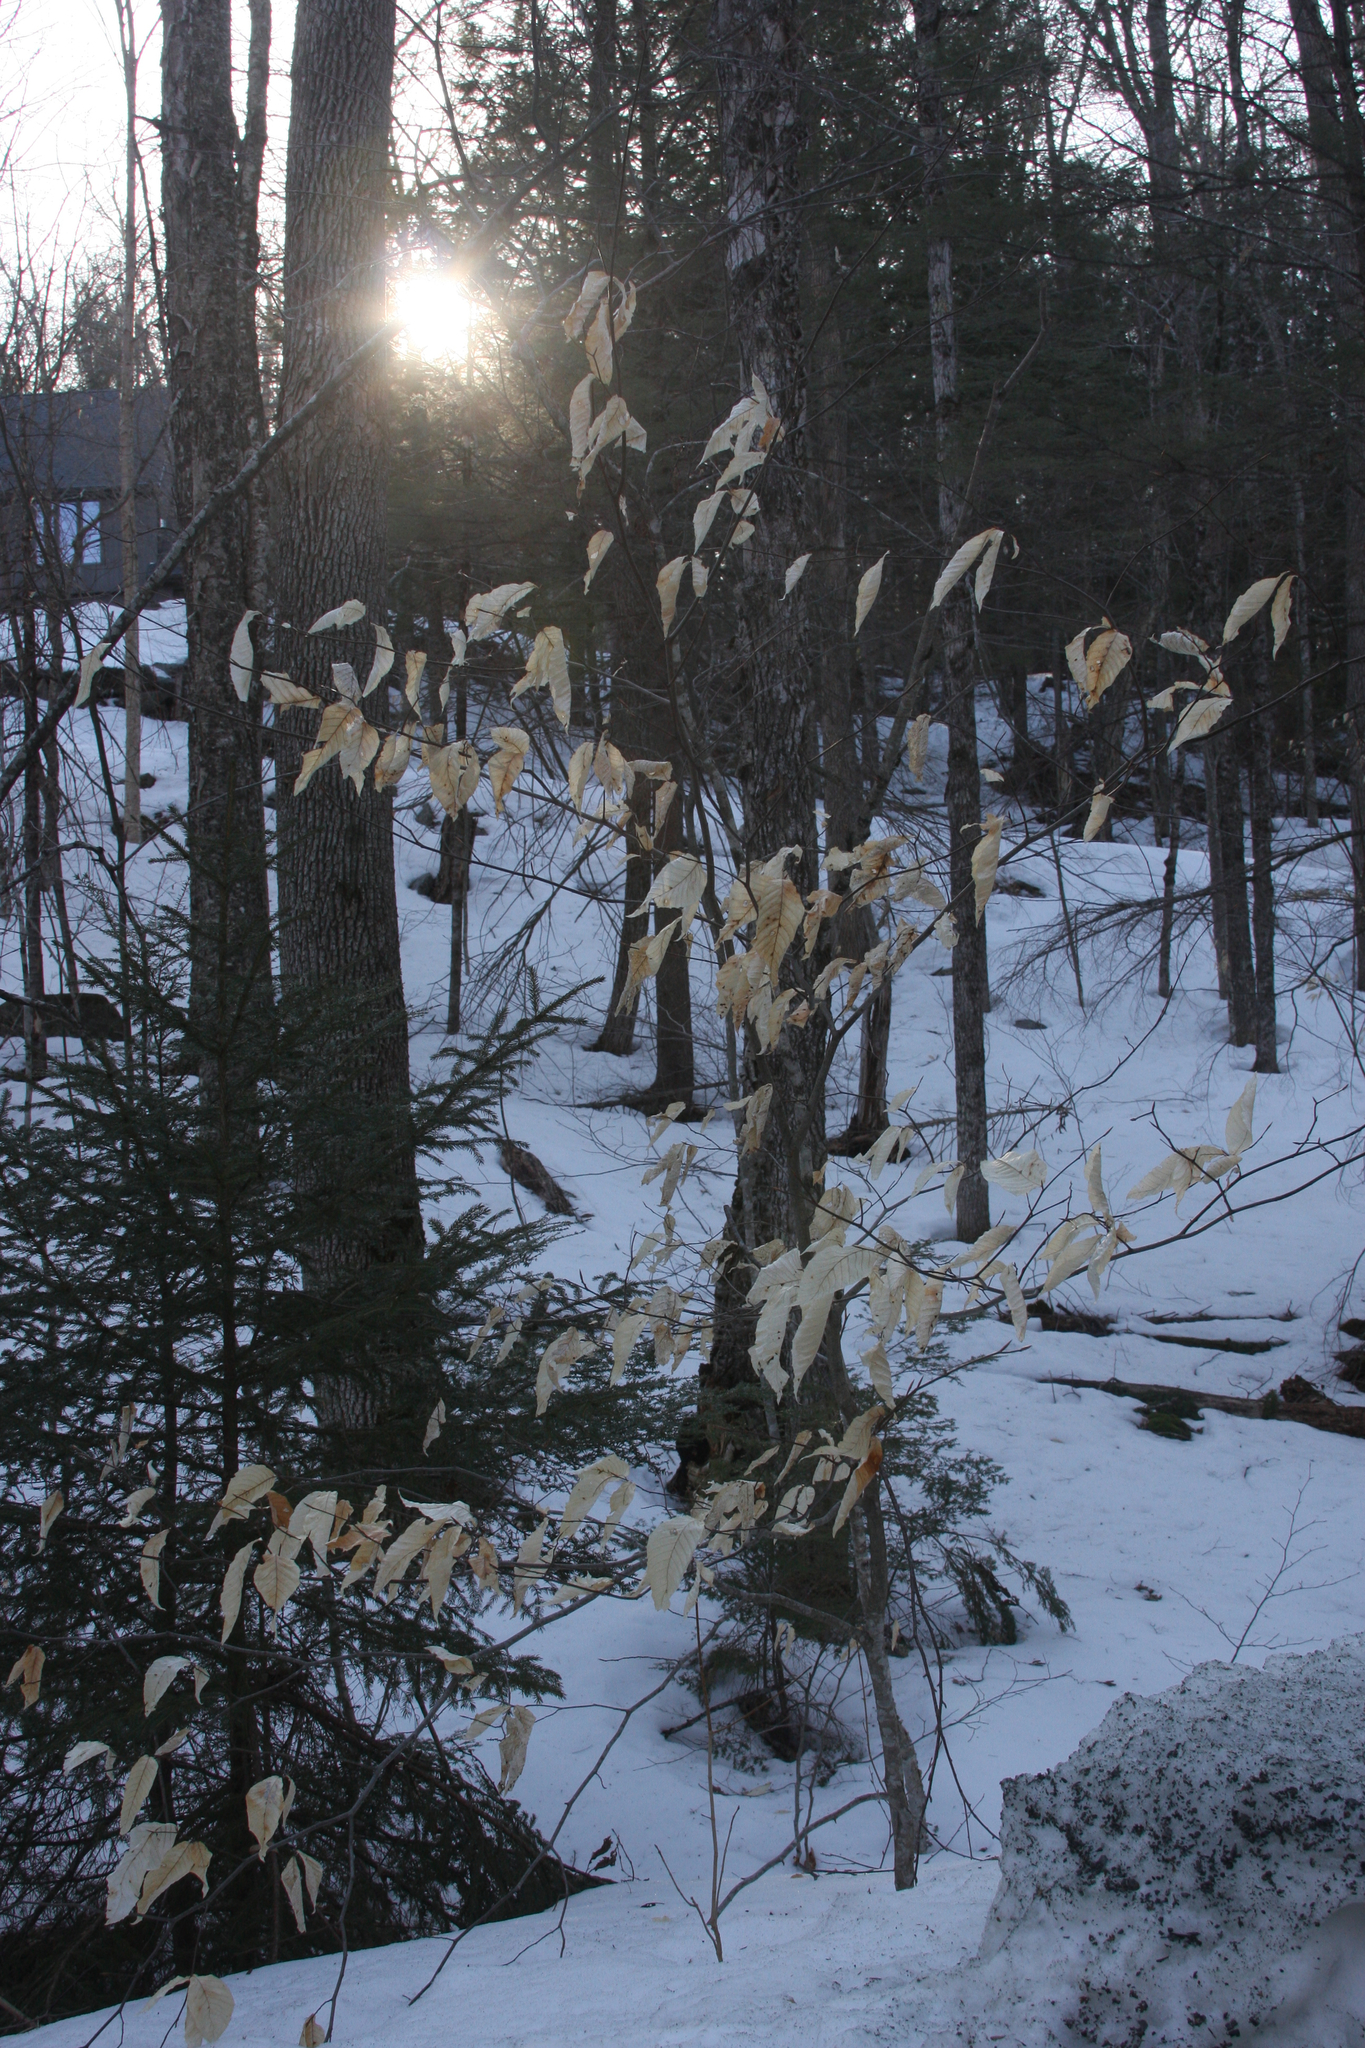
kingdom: Plantae
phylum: Tracheophyta
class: Magnoliopsida
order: Fagales
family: Fagaceae
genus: Fagus
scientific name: Fagus grandifolia
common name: American beech
